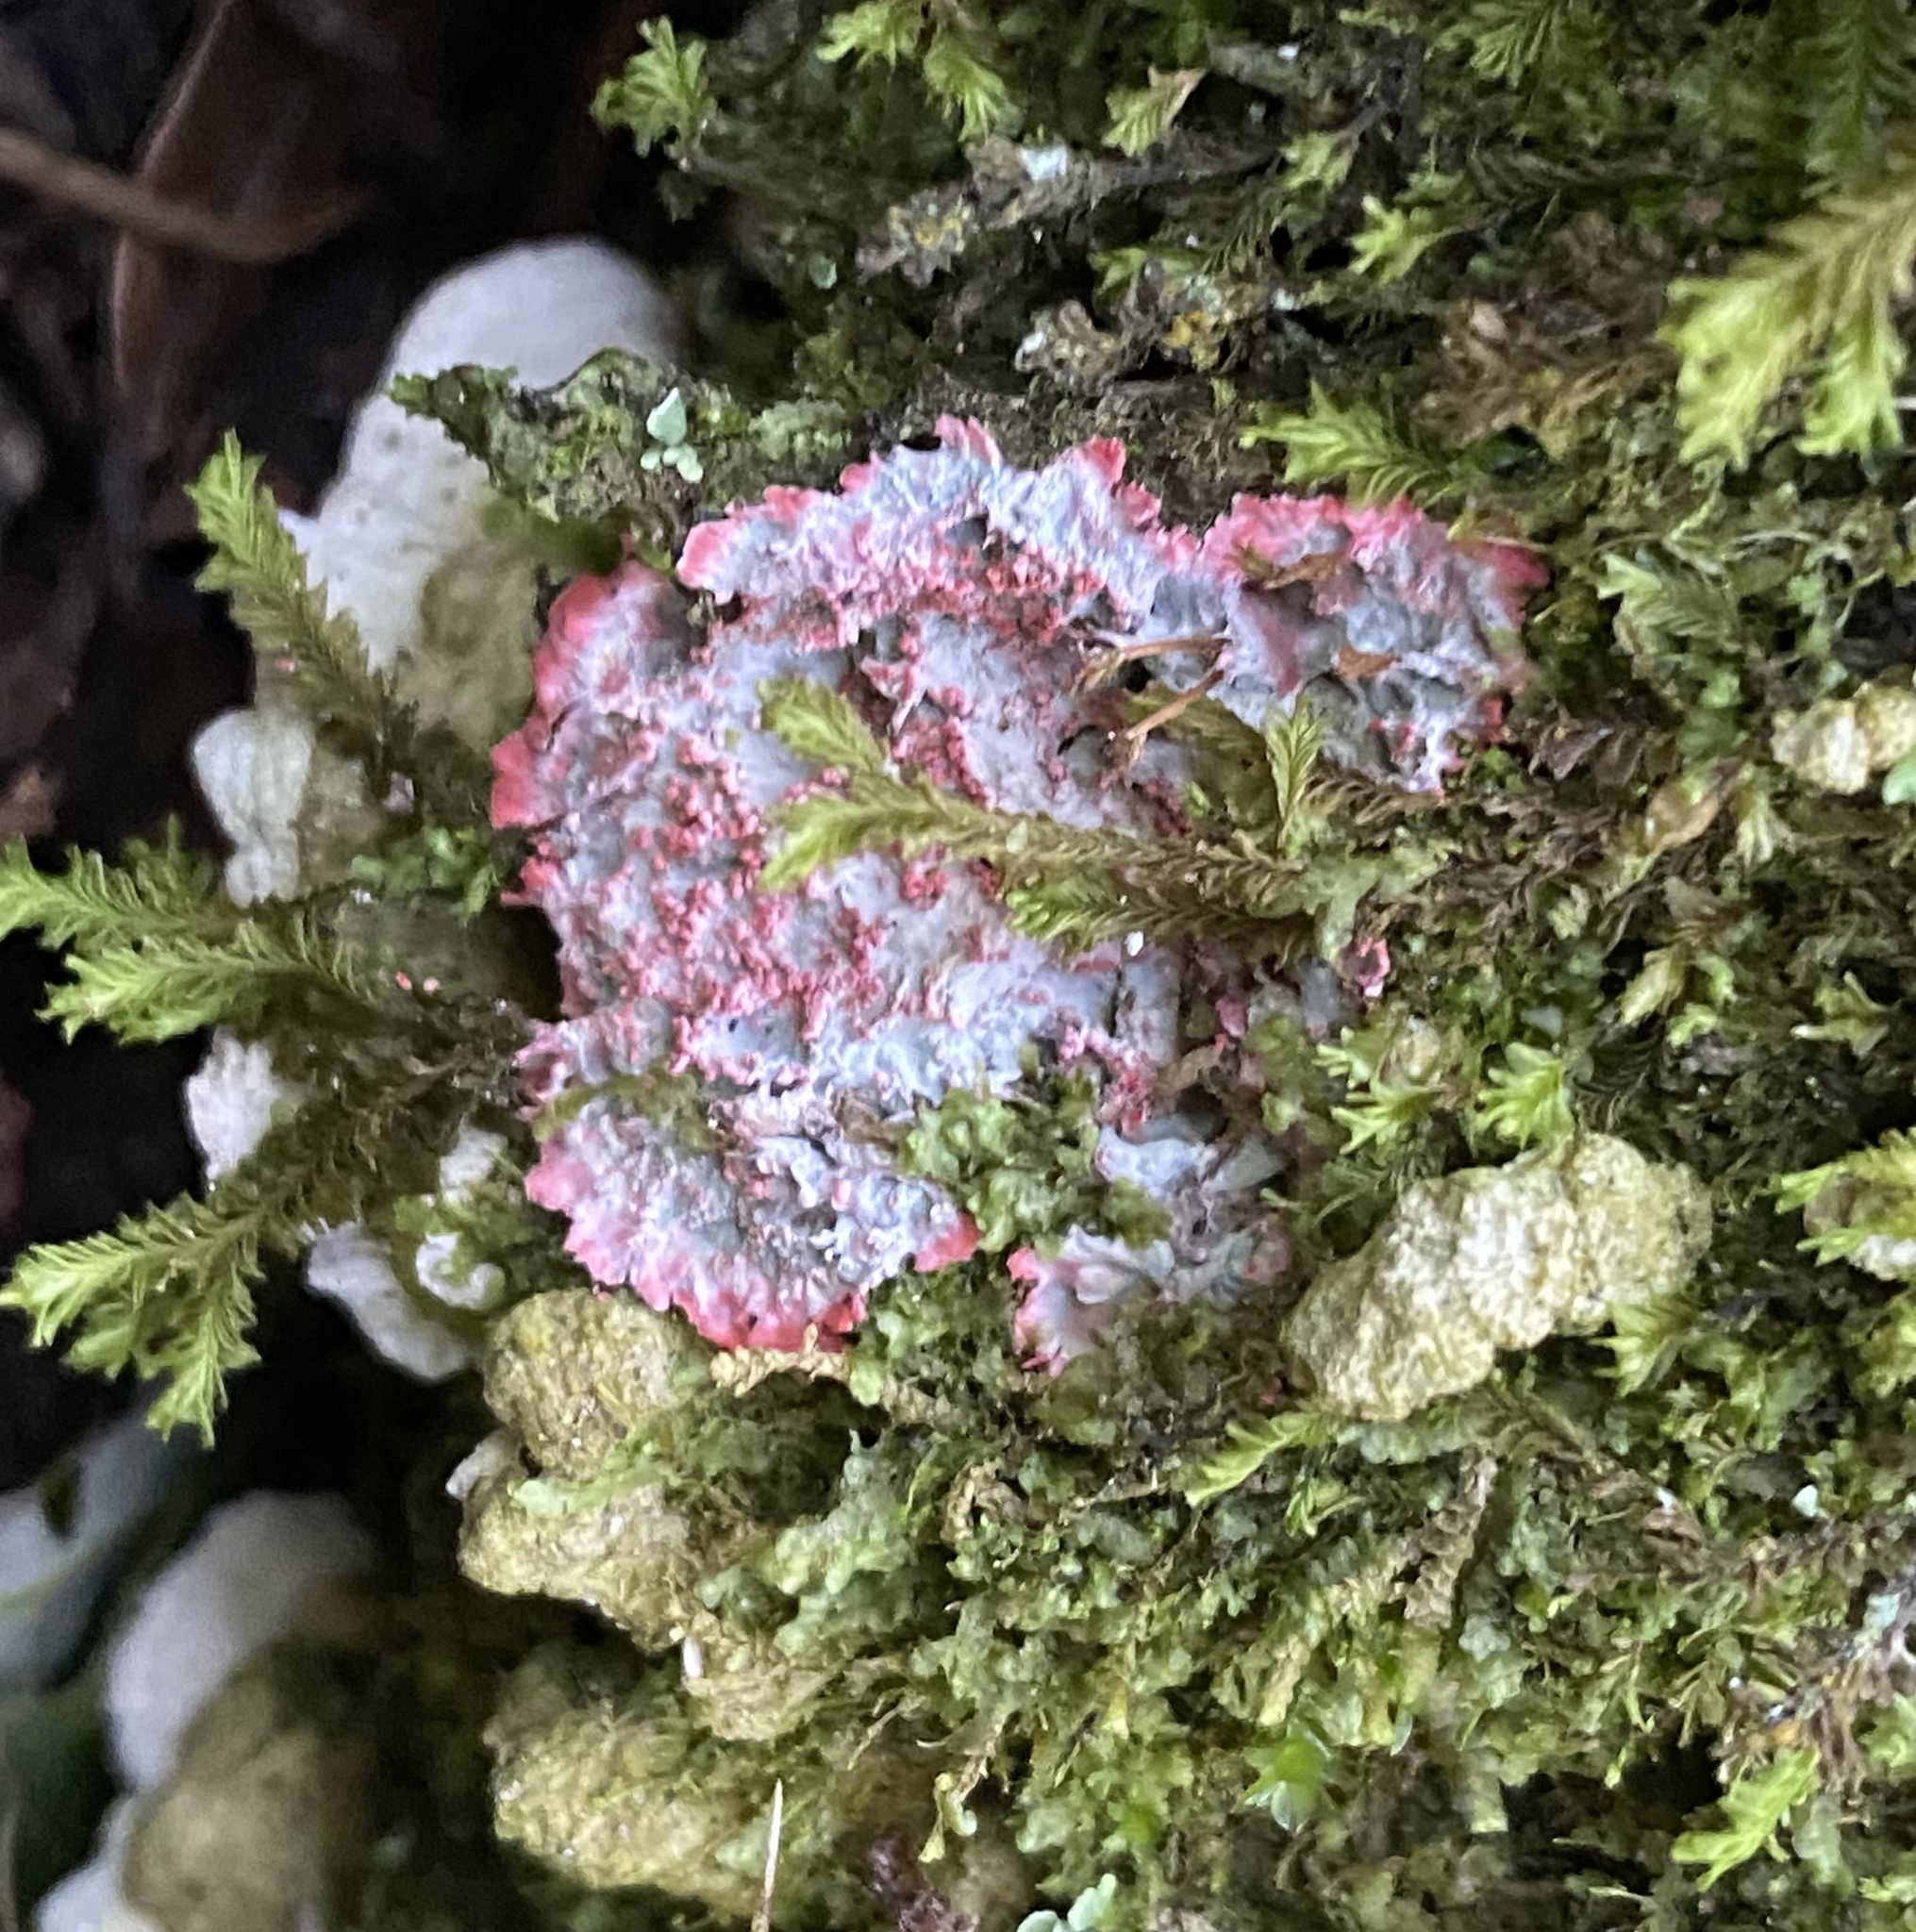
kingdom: Fungi
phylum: Ascomycota
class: Arthoniomycetes
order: Arthoniales
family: Arthoniaceae
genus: Herpothallon
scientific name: Herpothallon rubrocinctum
